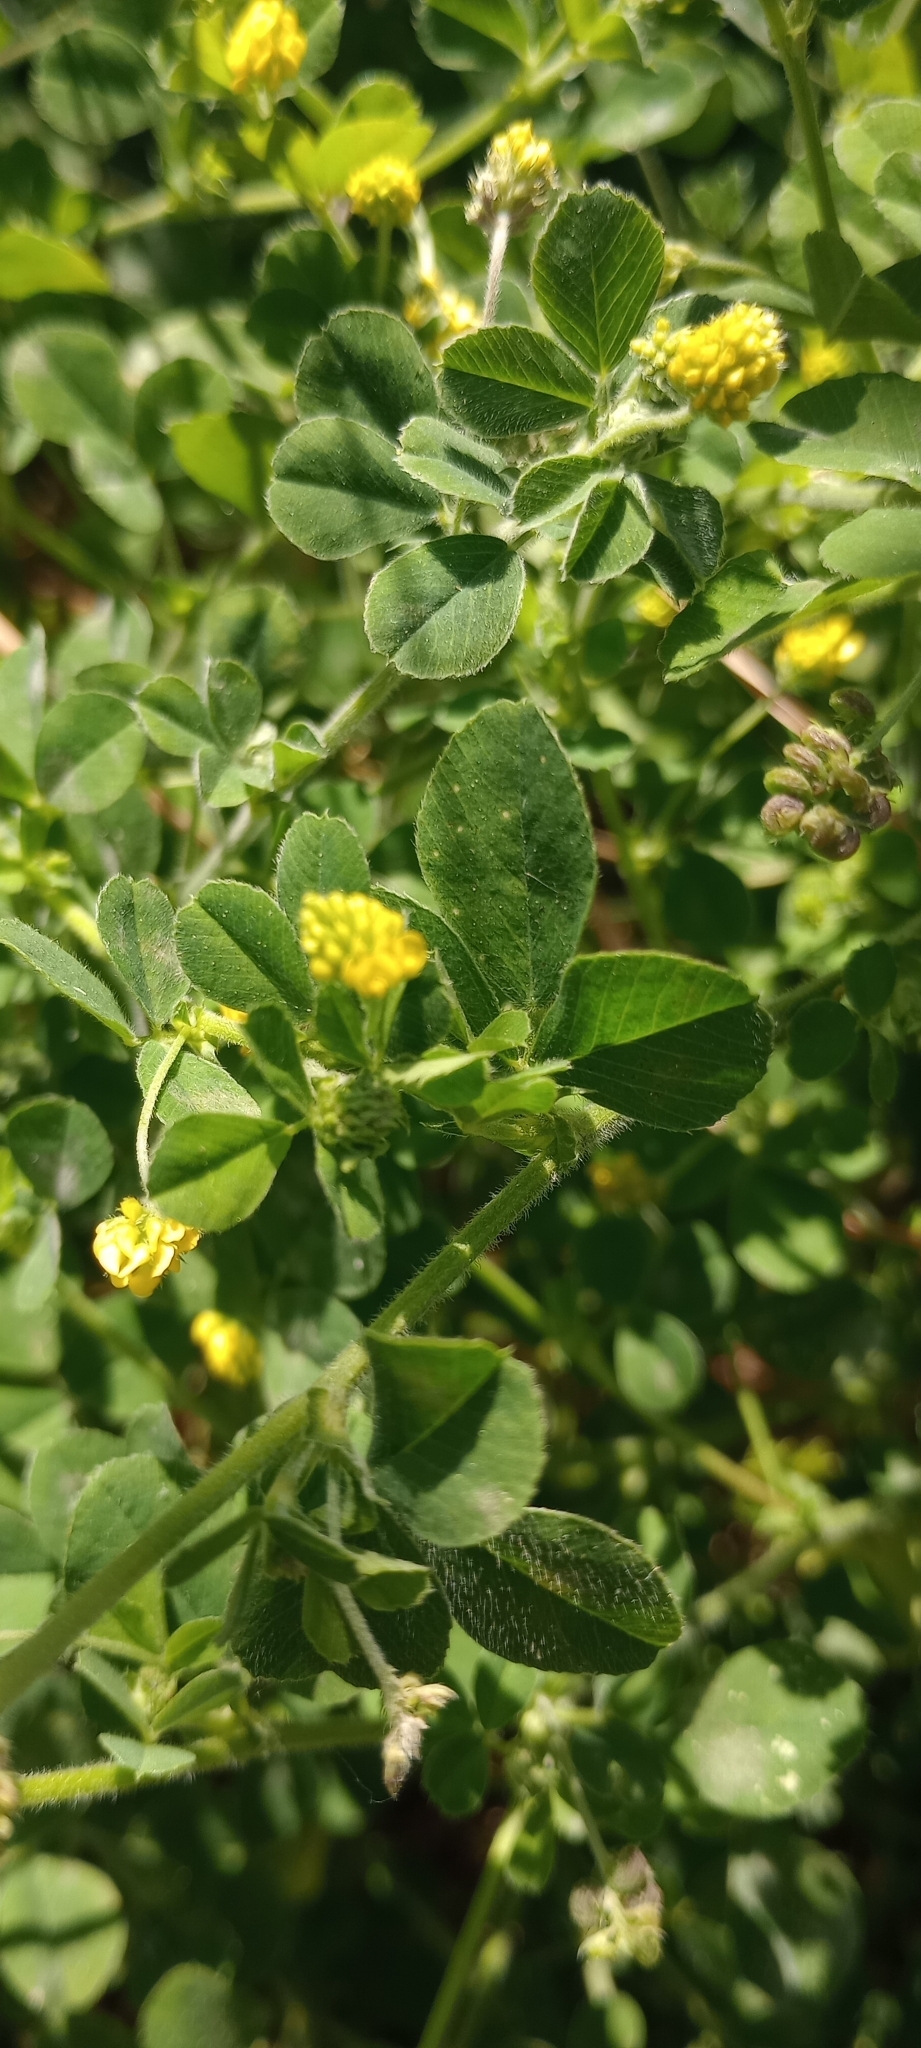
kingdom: Plantae
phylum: Tracheophyta
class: Magnoliopsida
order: Fabales
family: Fabaceae
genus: Medicago
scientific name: Medicago lupulina
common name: Black medick
